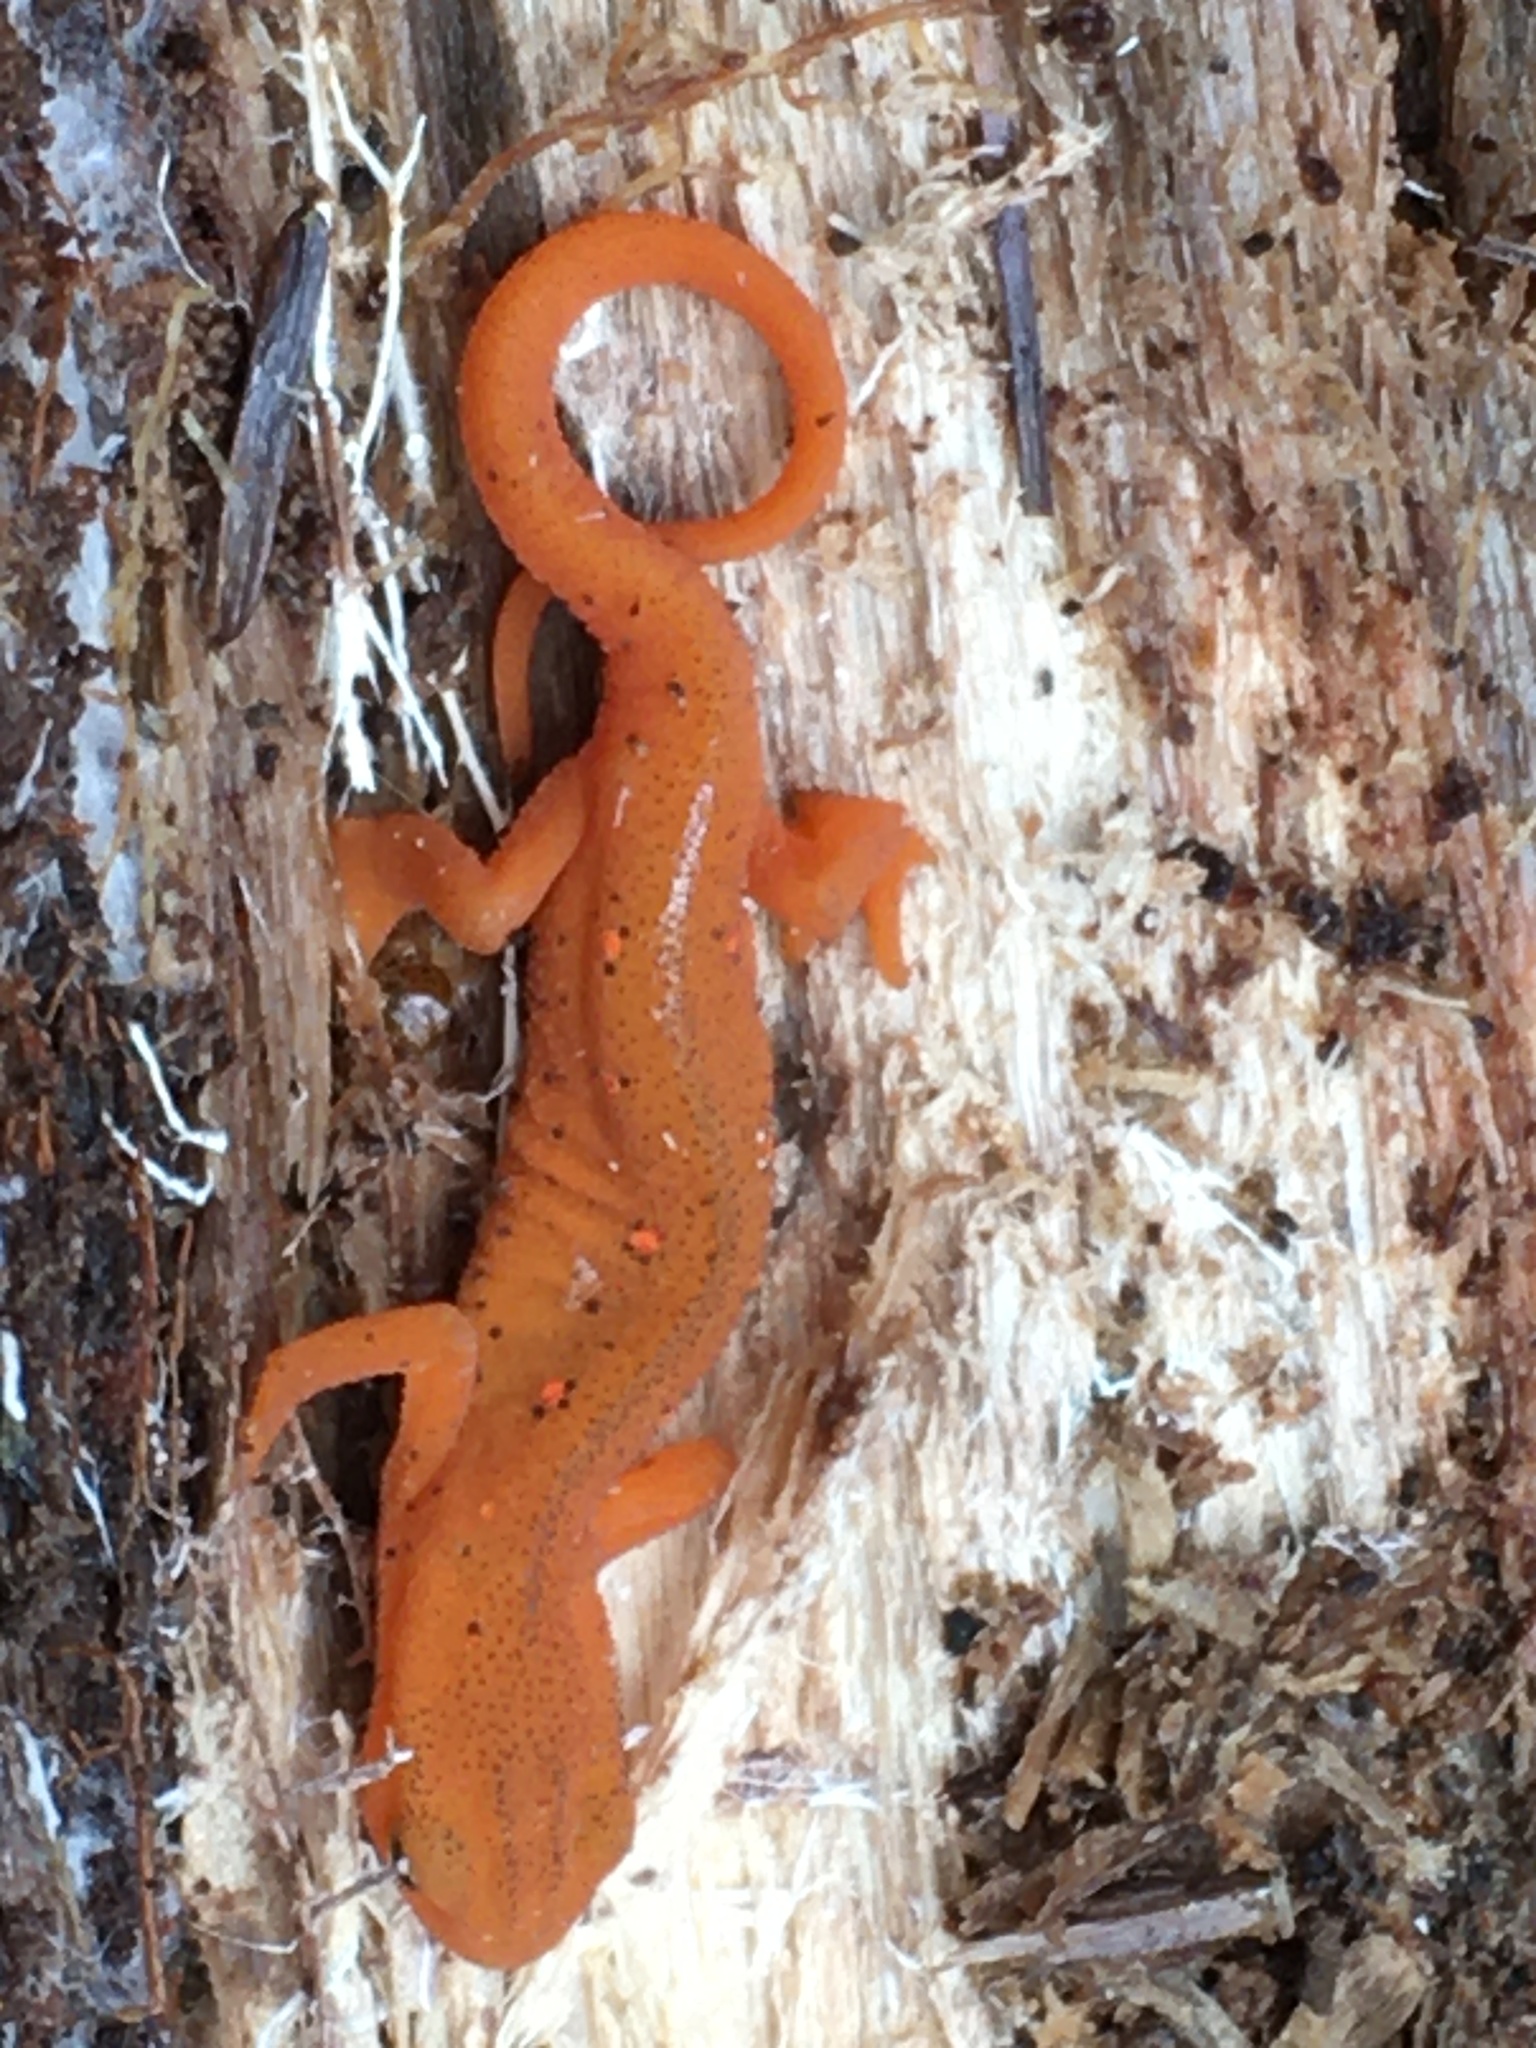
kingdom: Animalia
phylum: Chordata
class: Amphibia
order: Caudata
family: Salamandridae
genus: Notophthalmus
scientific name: Notophthalmus viridescens
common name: Eastern newt
